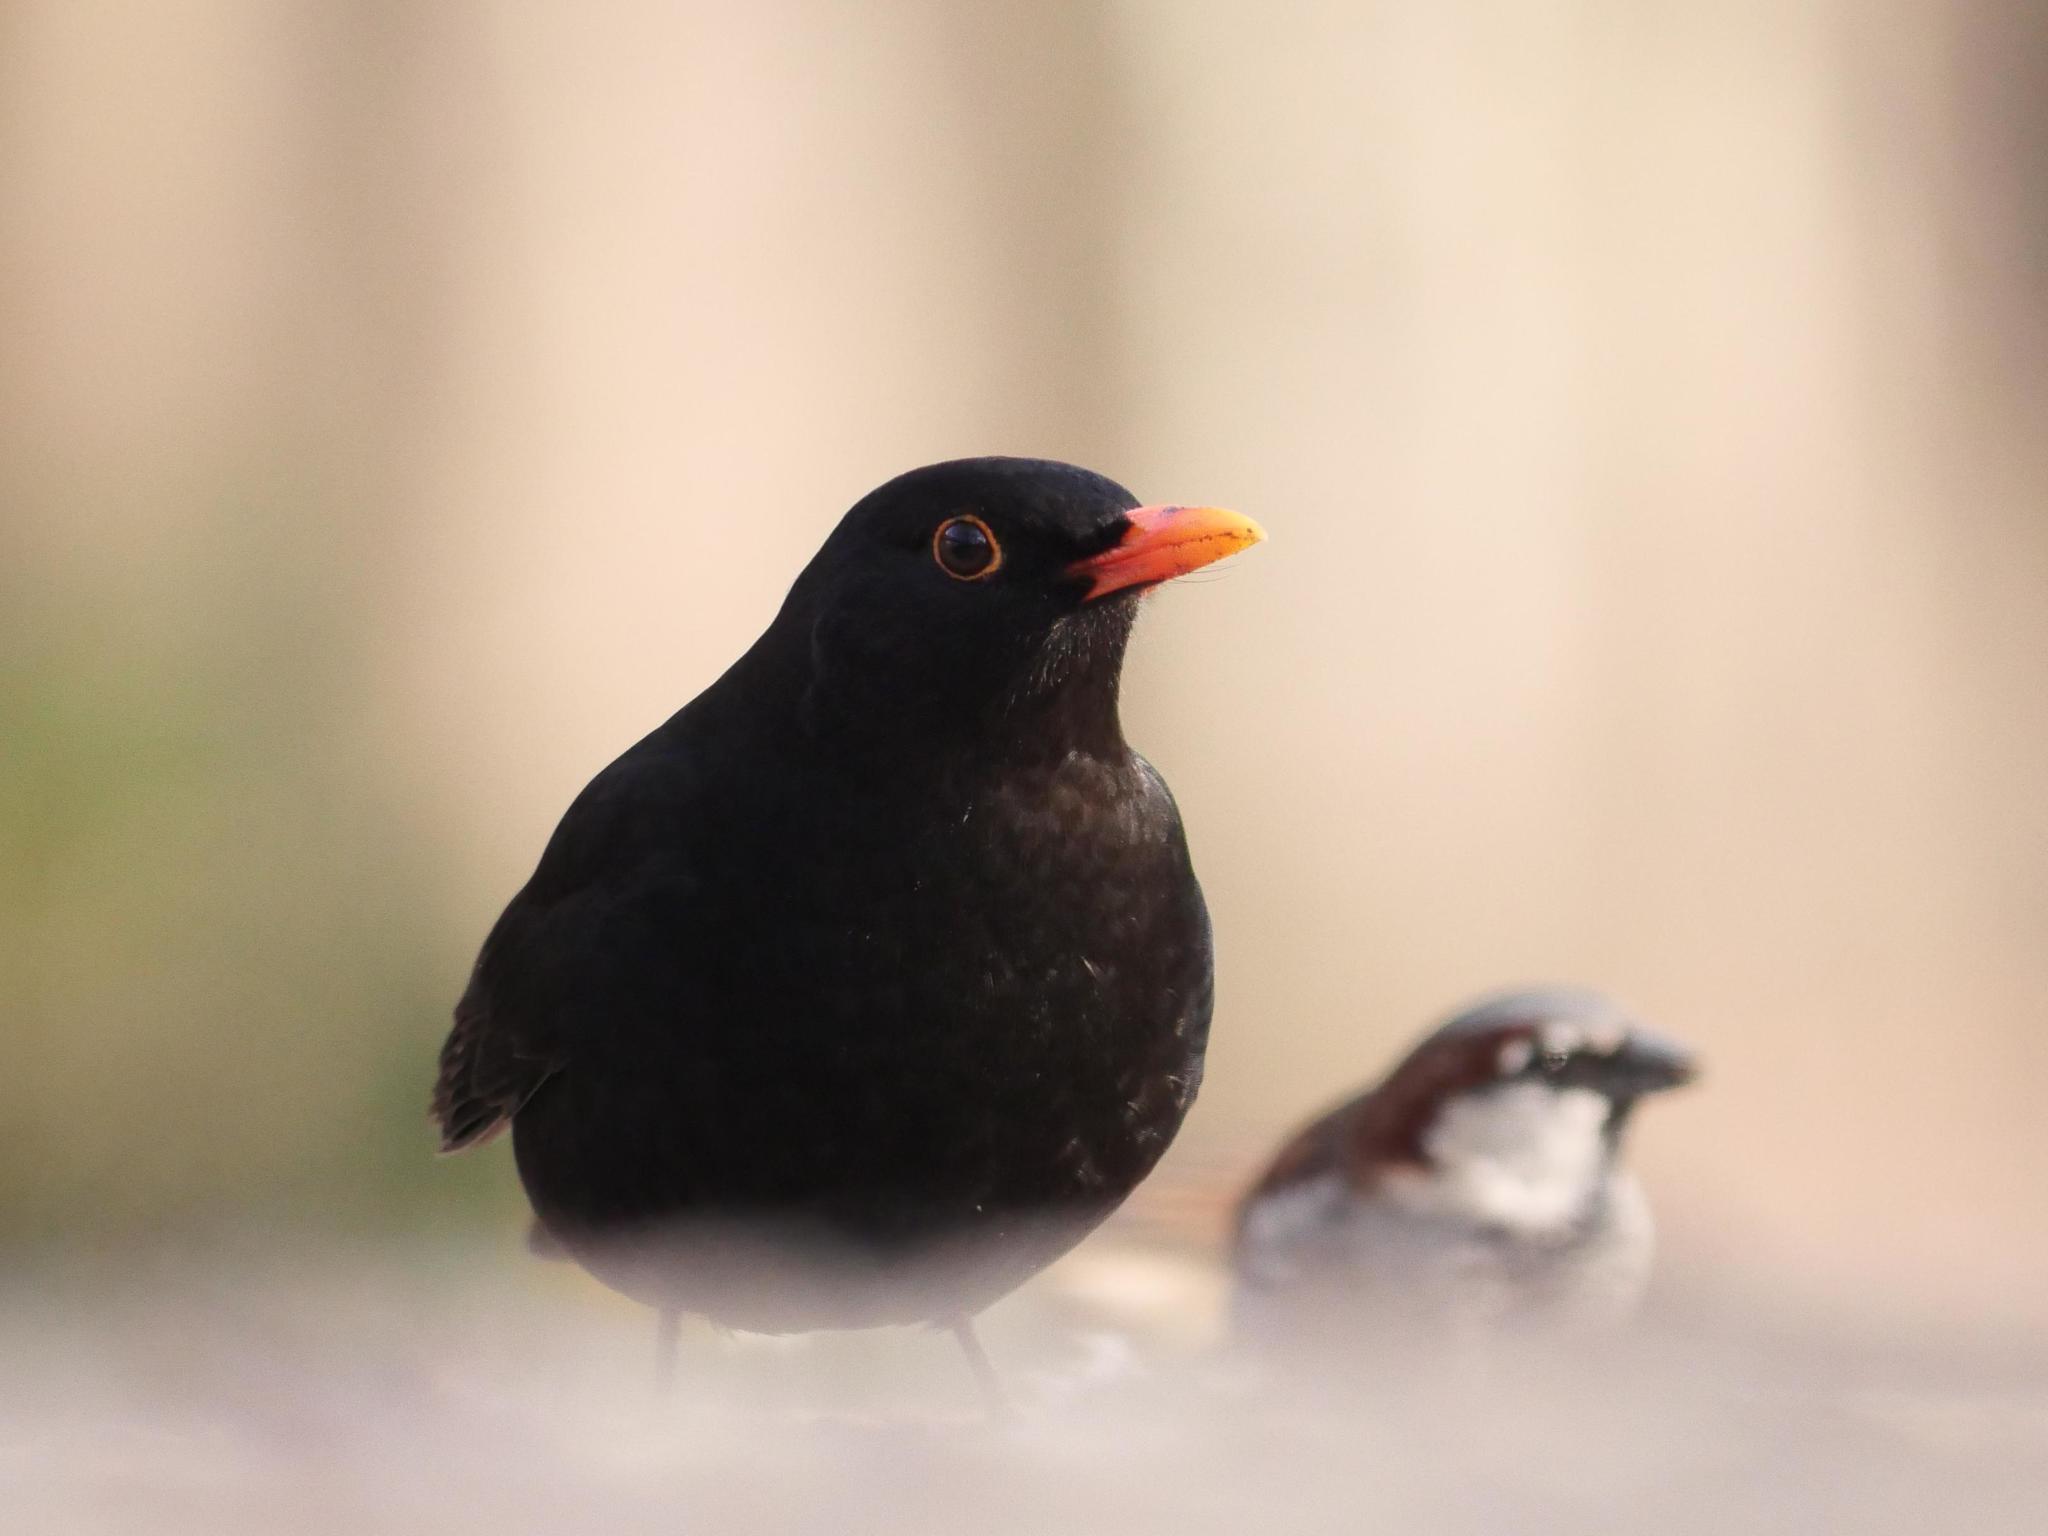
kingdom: Animalia
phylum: Chordata
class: Aves
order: Passeriformes
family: Turdidae
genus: Turdus
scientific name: Turdus merula
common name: Common blackbird
